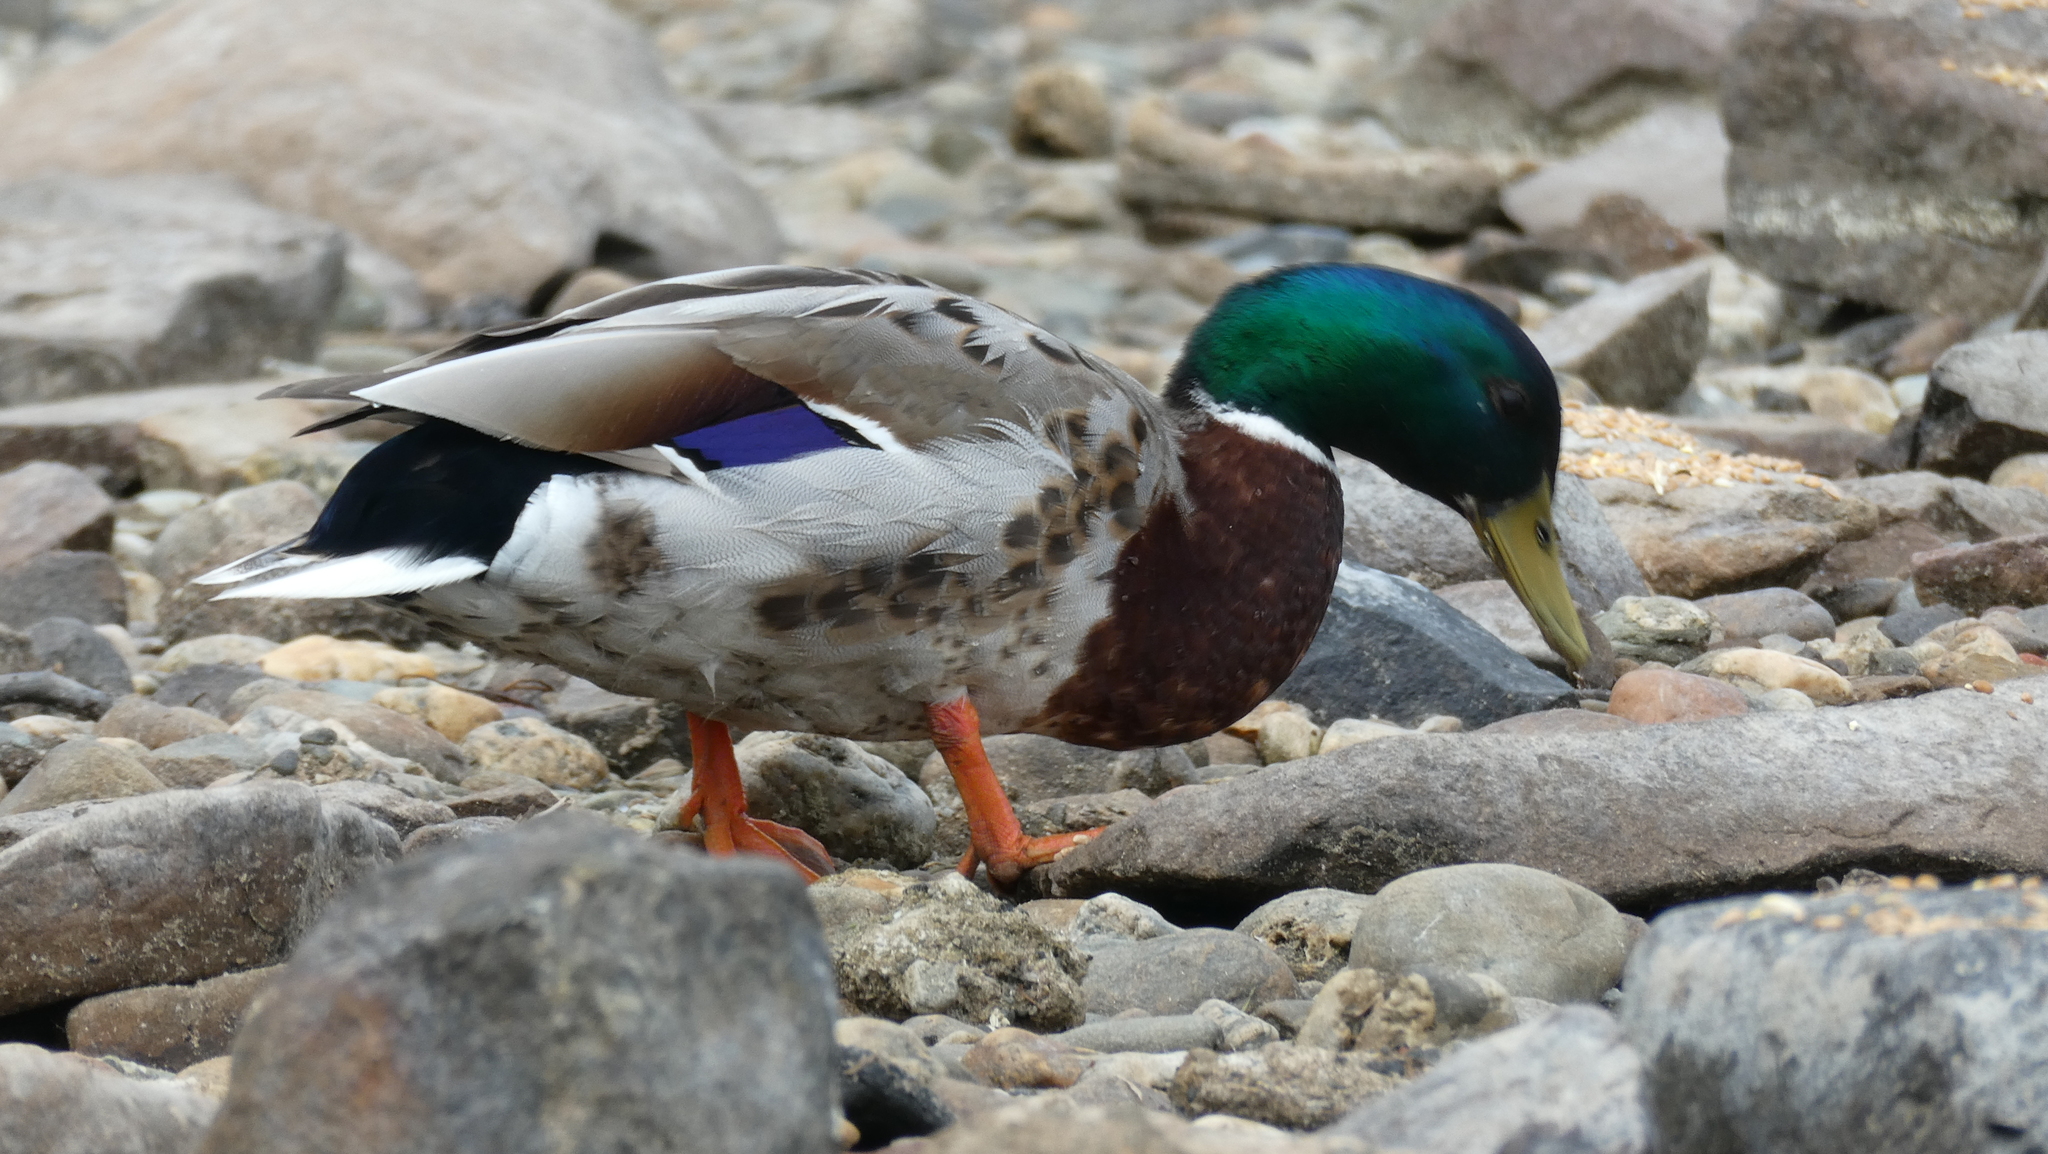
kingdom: Animalia
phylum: Chordata
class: Aves
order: Anseriformes
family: Anatidae
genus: Anas
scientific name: Anas platyrhynchos
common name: Mallard
